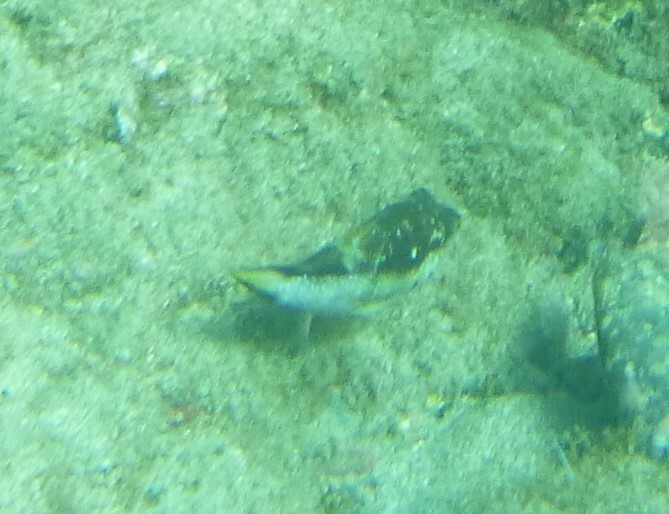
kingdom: Animalia
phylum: Chordata
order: Tetraodontiformes
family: Tetraodontidae
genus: Canthigaster
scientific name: Canthigaster capistrata
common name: Macaronesian sharpnose-puffer
